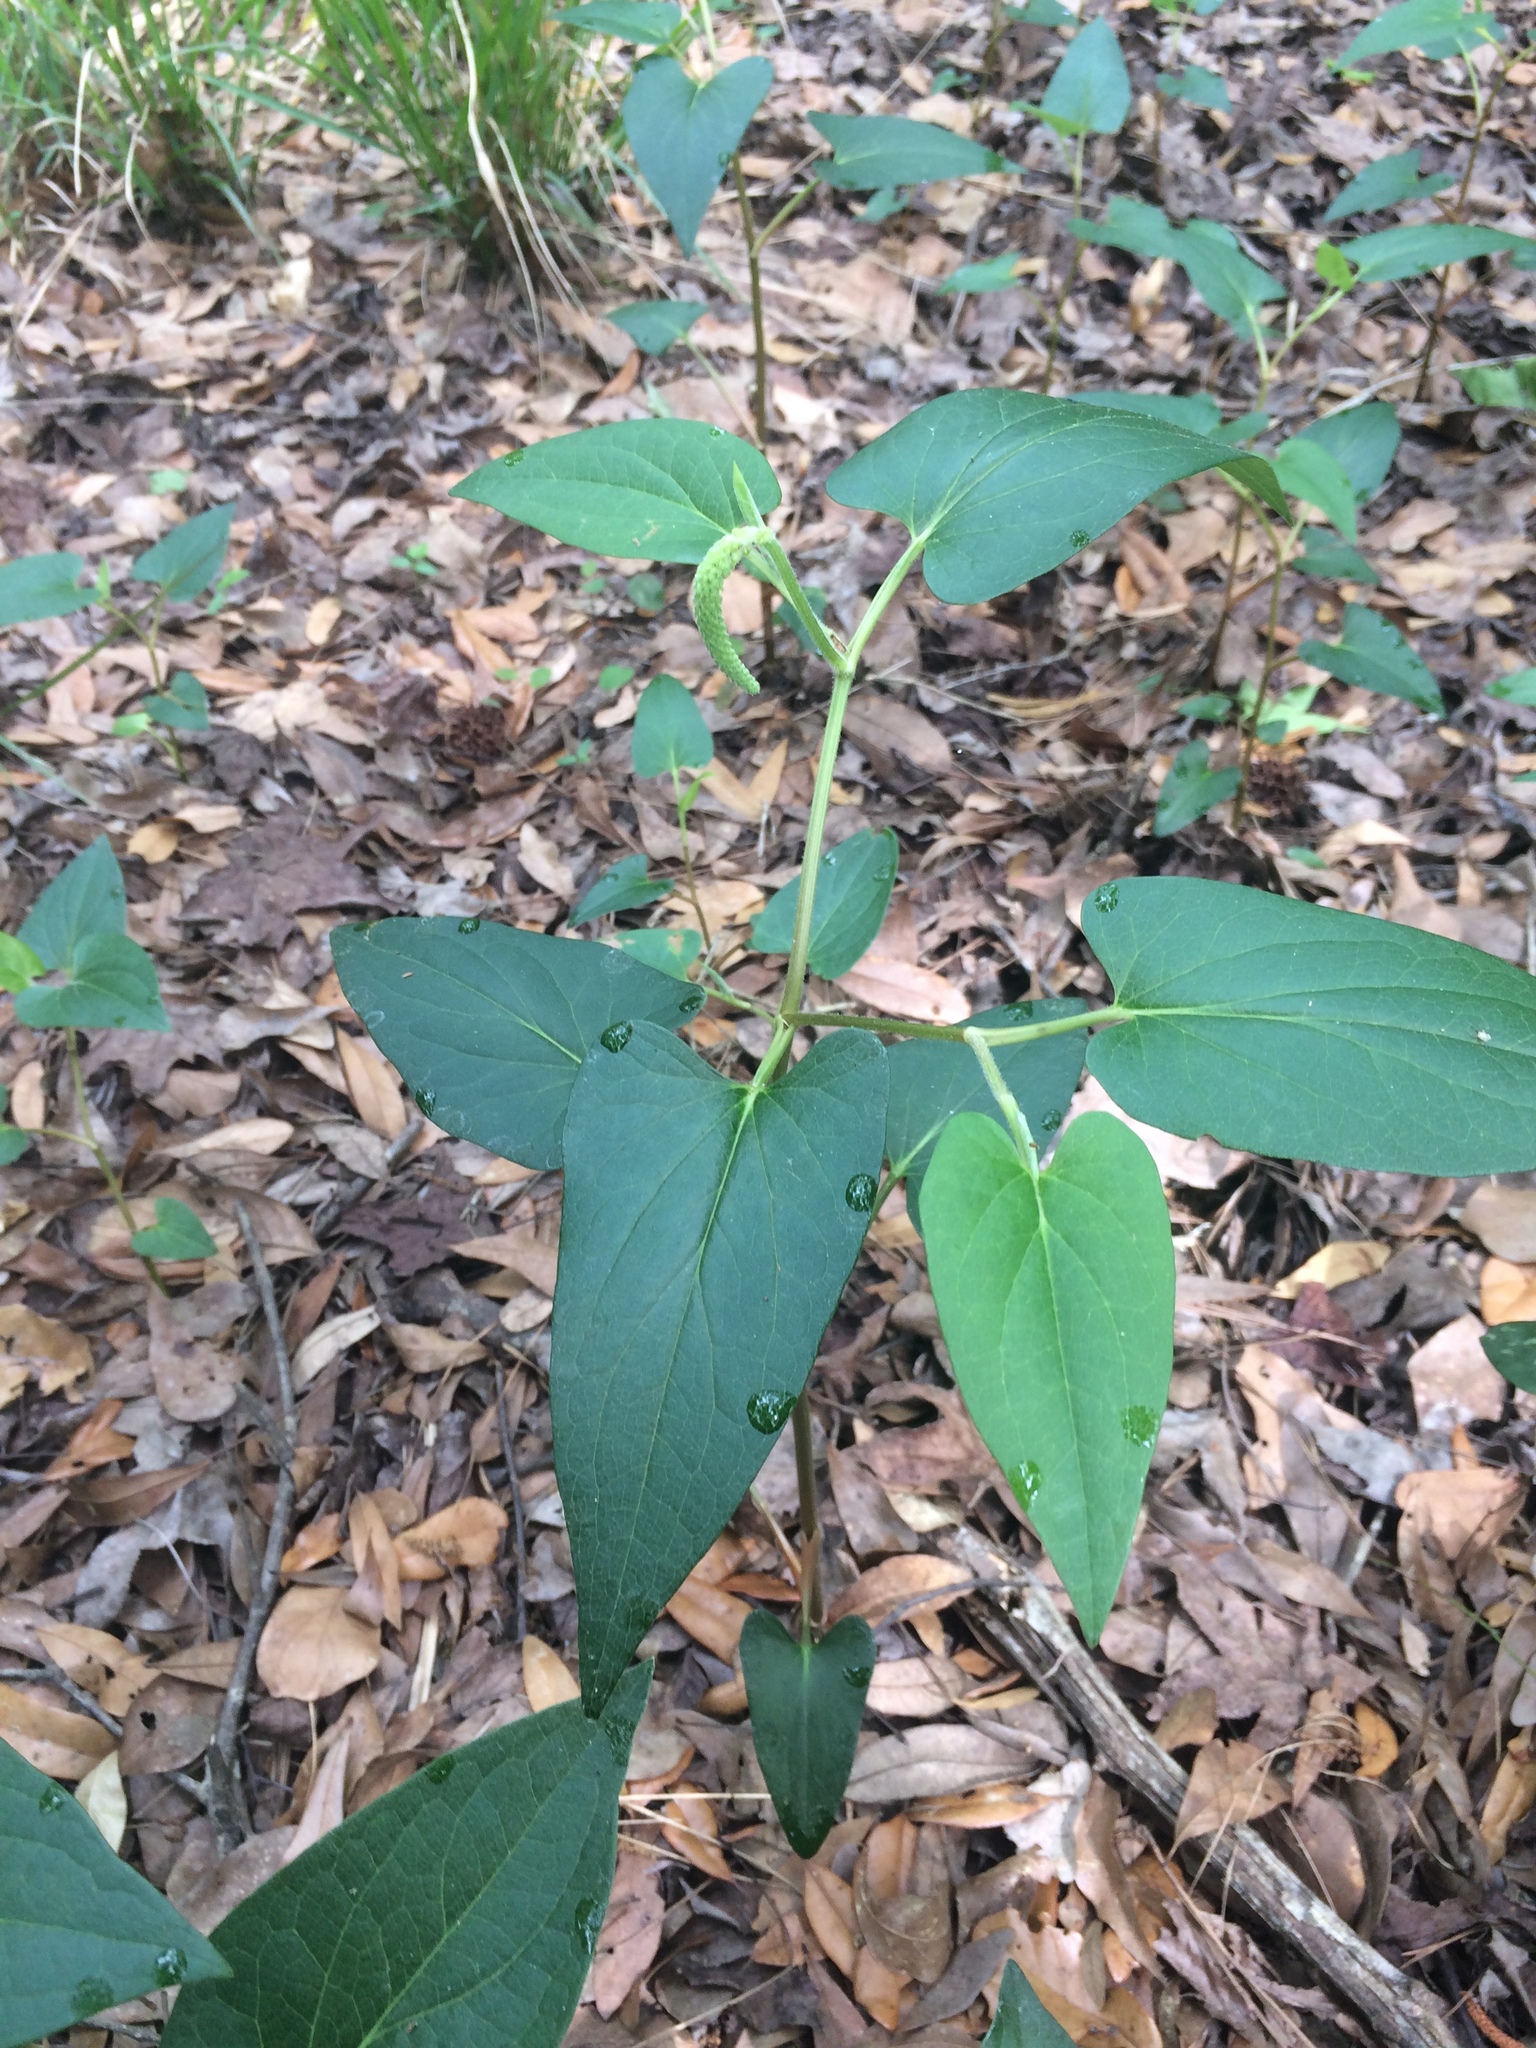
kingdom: Plantae
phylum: Tracheophyta
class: Magnoliopsida
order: Piperales
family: Saururaceae
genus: Saururus
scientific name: Saururus cernuus
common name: Lizard's-tail
